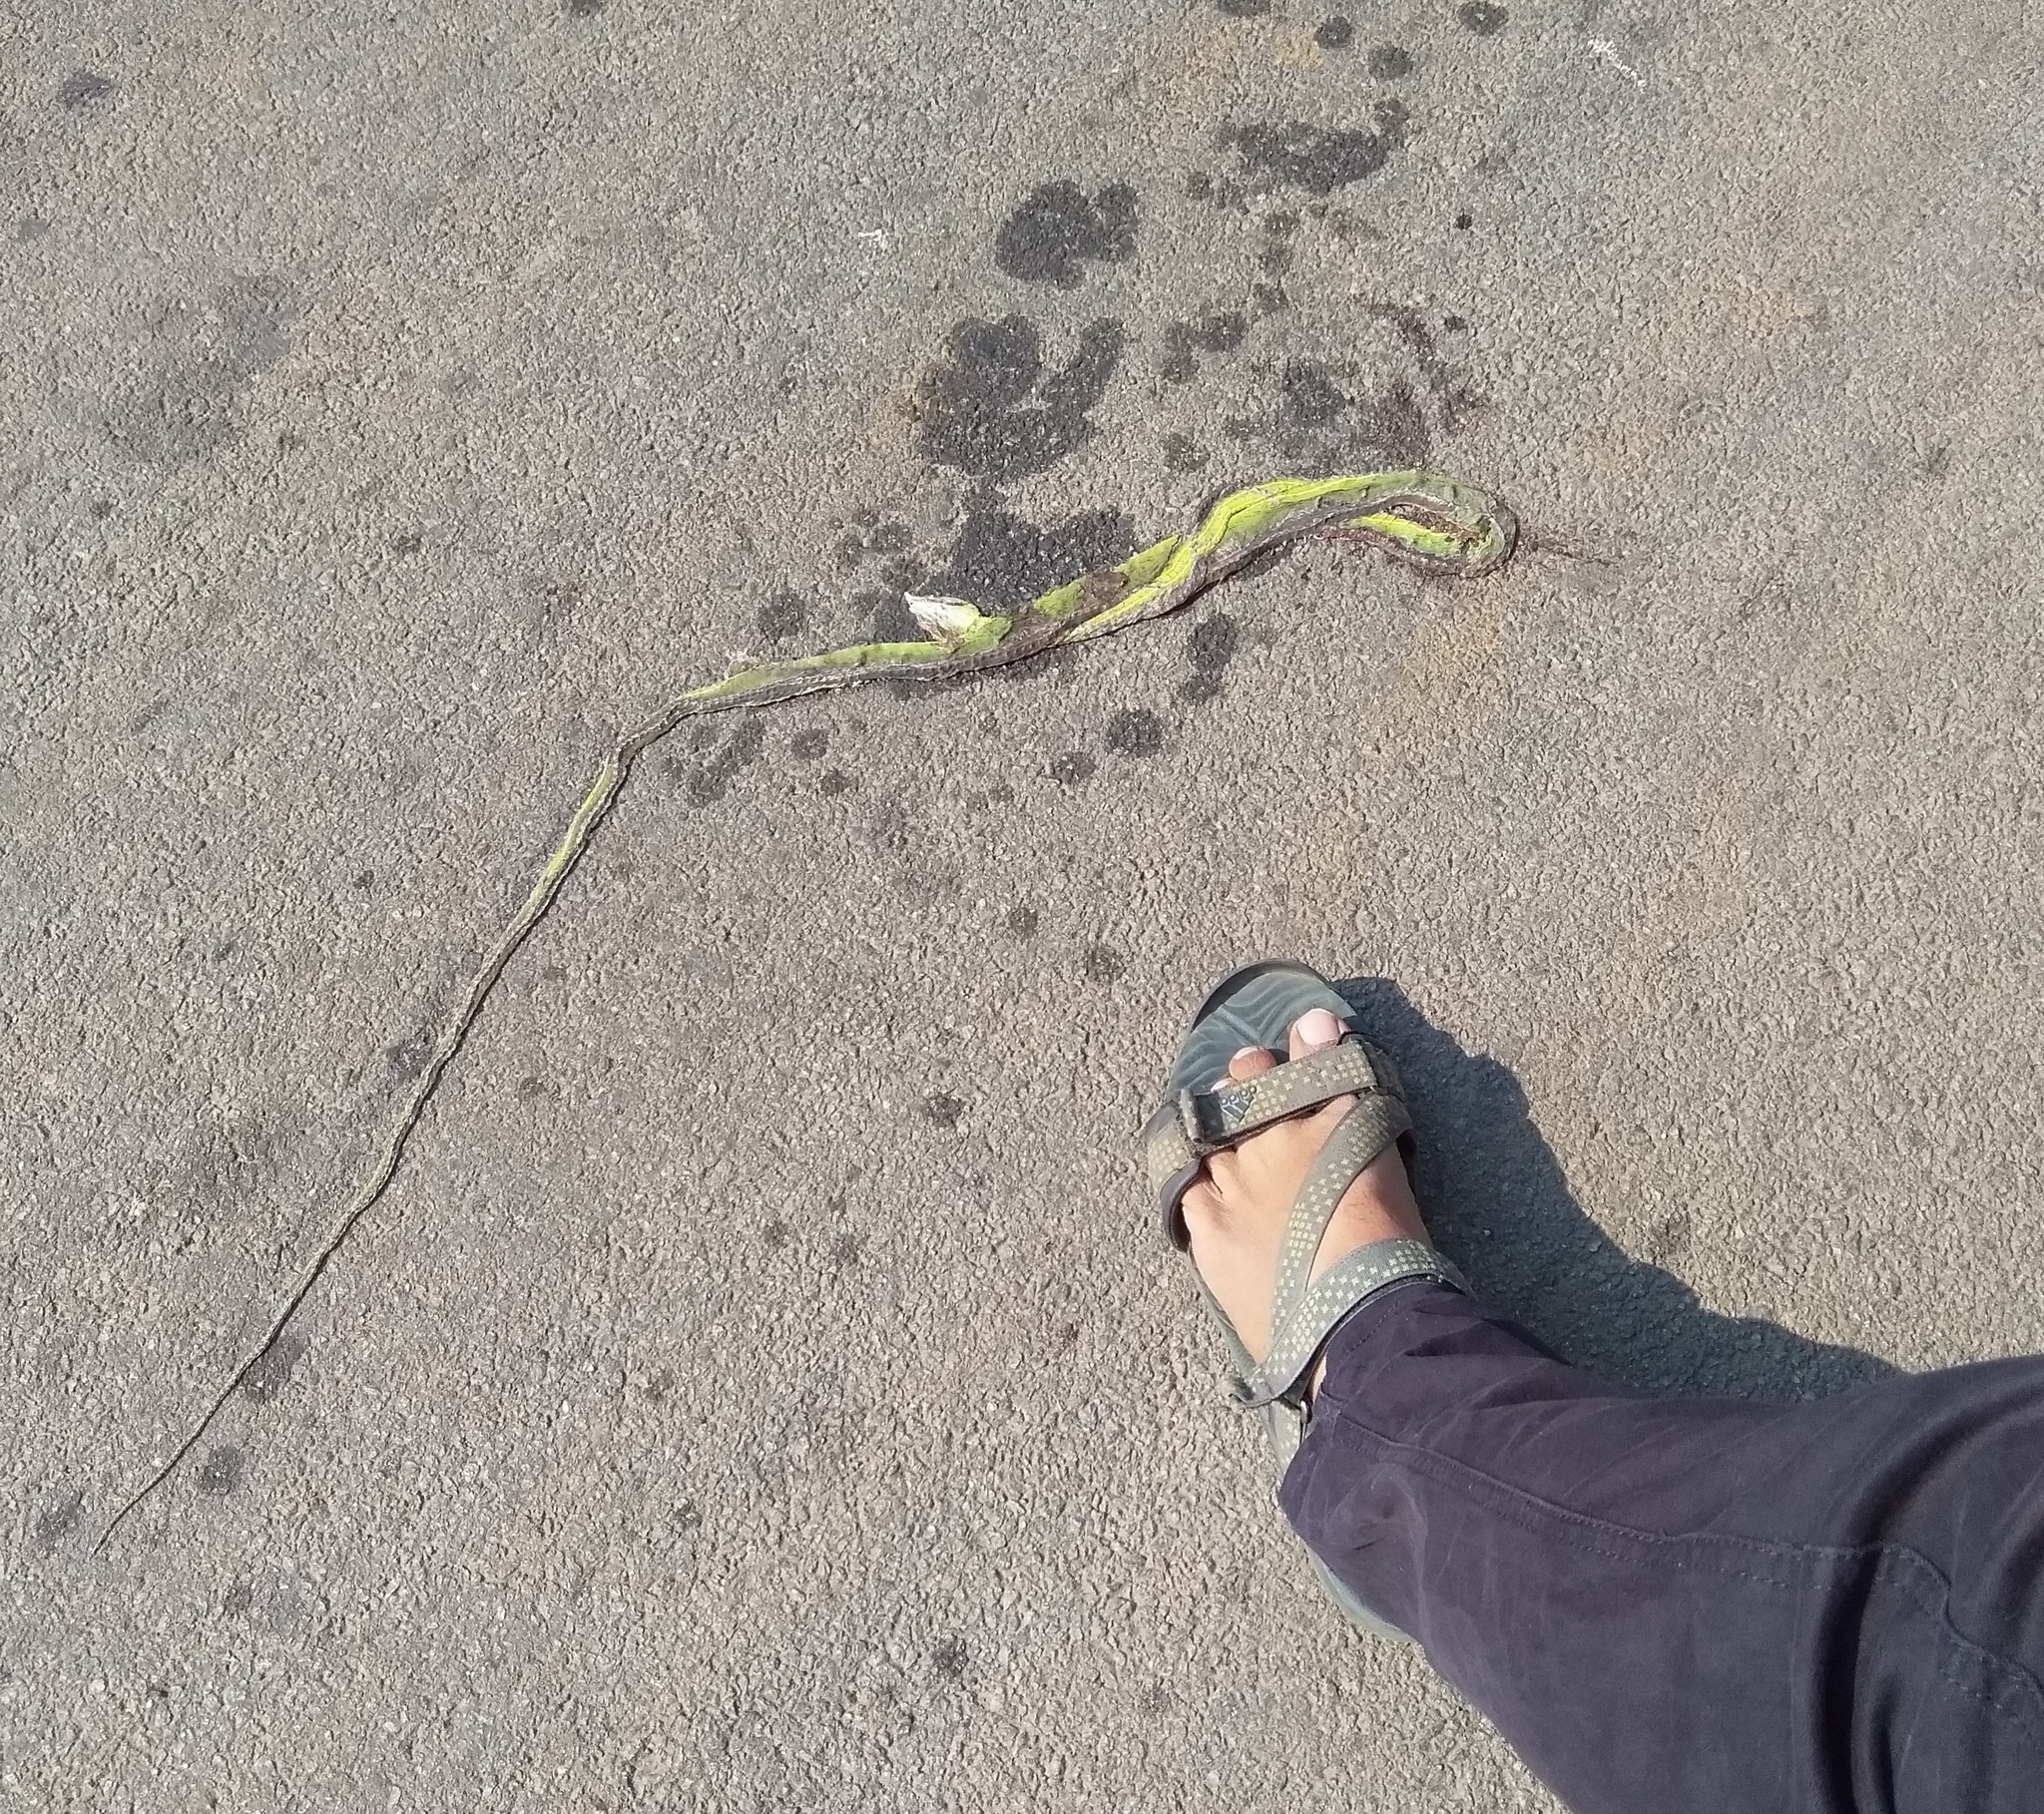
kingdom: Animalia
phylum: Chordata
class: Squamata
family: Colubridae
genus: Ahaetulla
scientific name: Ahaetulla oxyrhyncha
